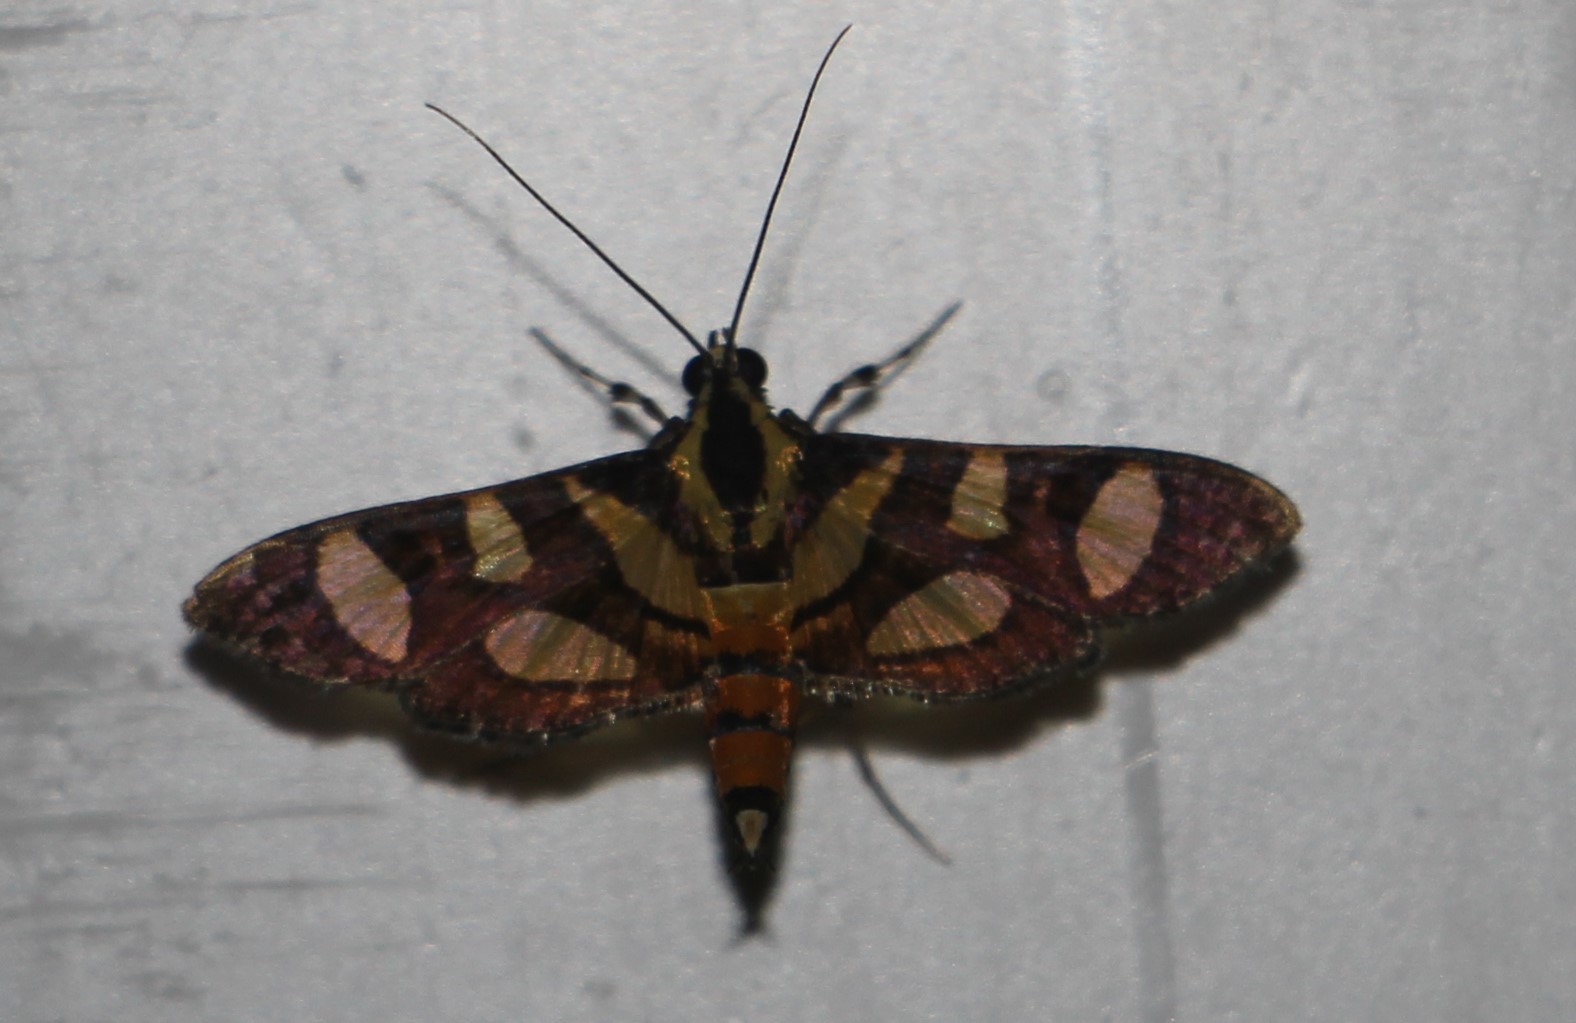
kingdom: Animalia
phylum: Arthropoda
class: Insecta
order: Lepidoptera
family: Crambidae
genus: Syngamia
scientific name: Syngamia florella
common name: Orange-spotted flower moth
